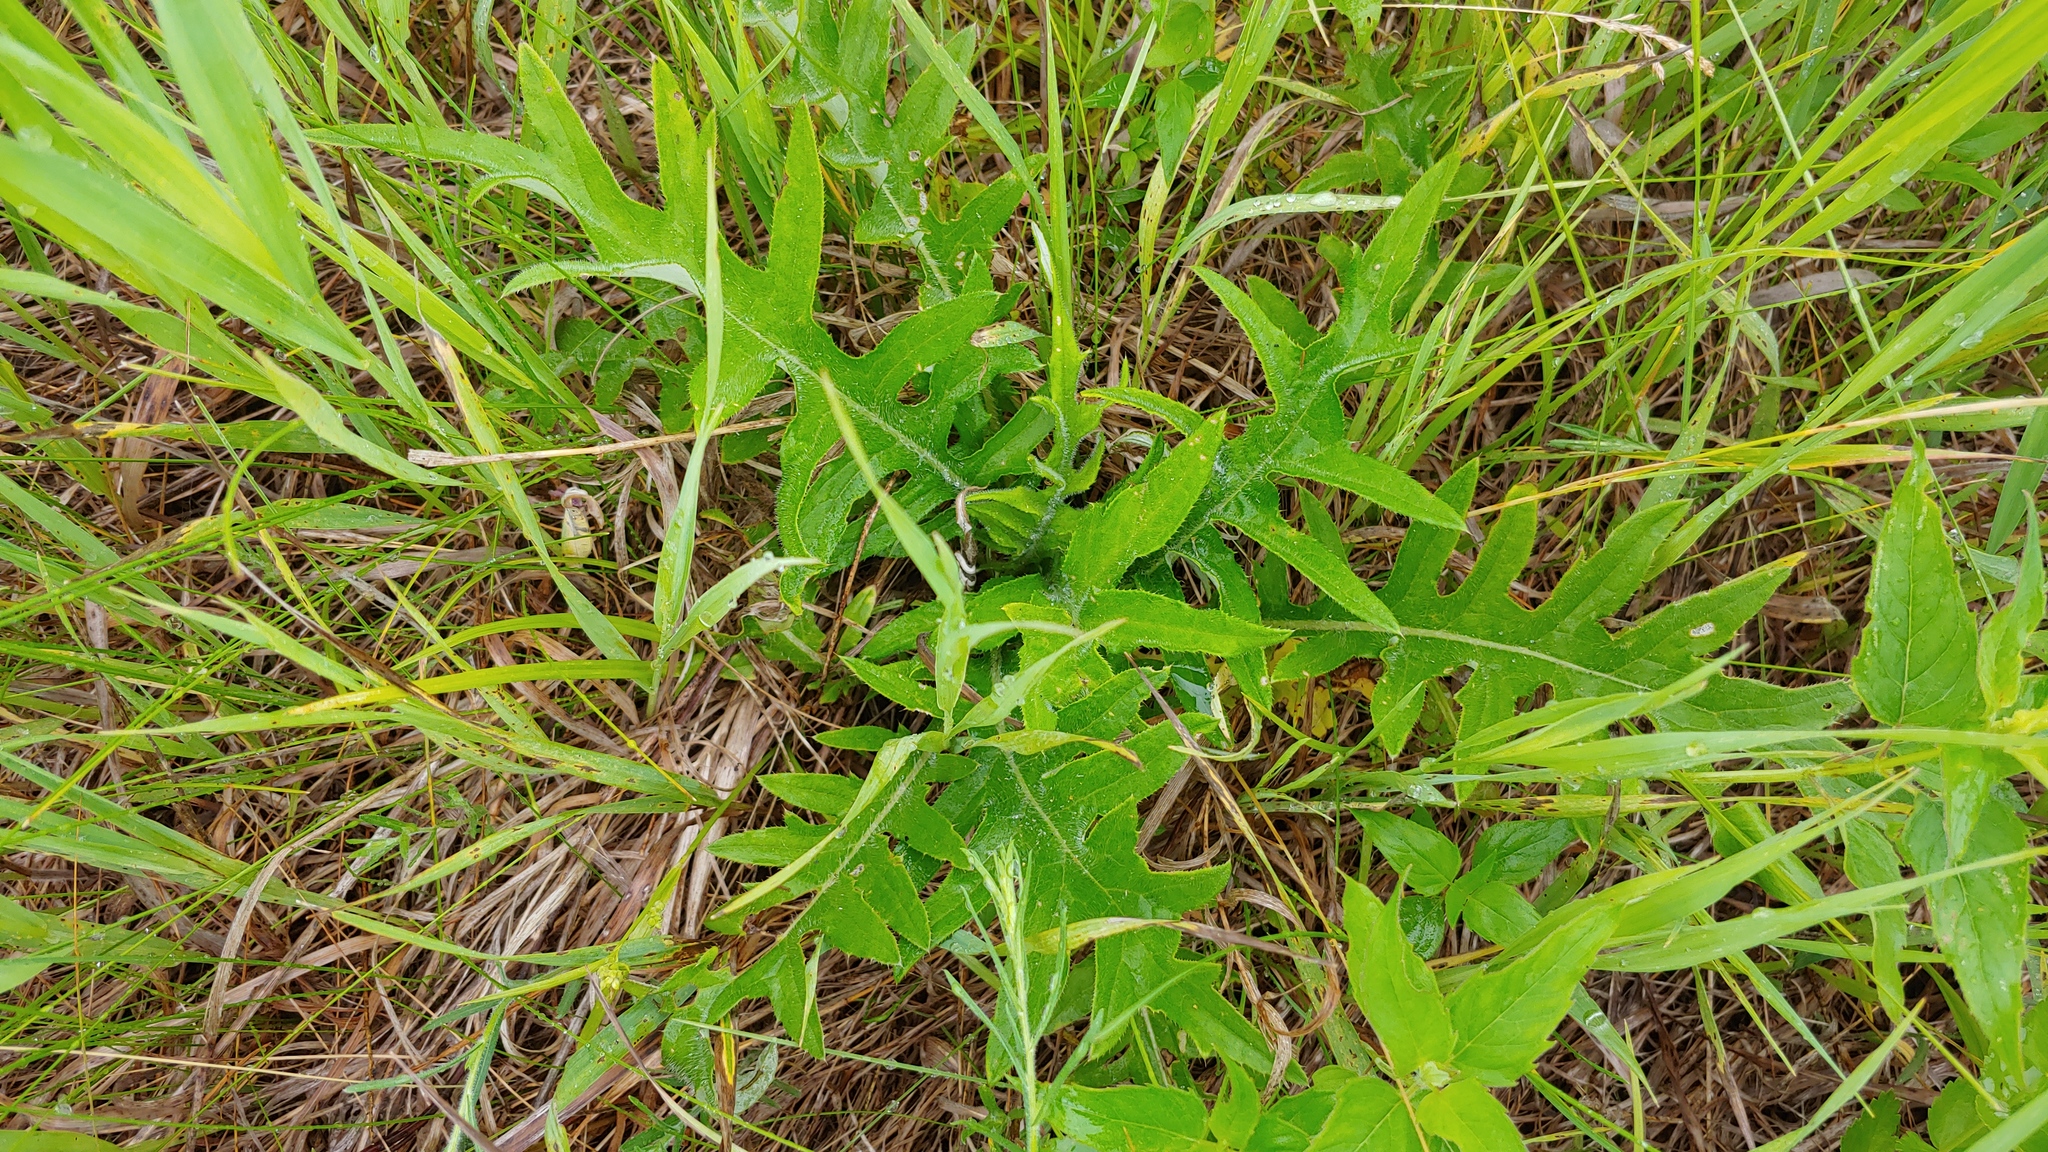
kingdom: Plantae
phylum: Tracheophyta
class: Magnoliopsida
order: Asterales
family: Asteraceae
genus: Cirsium
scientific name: Cirsium discolor
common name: Field thistle
